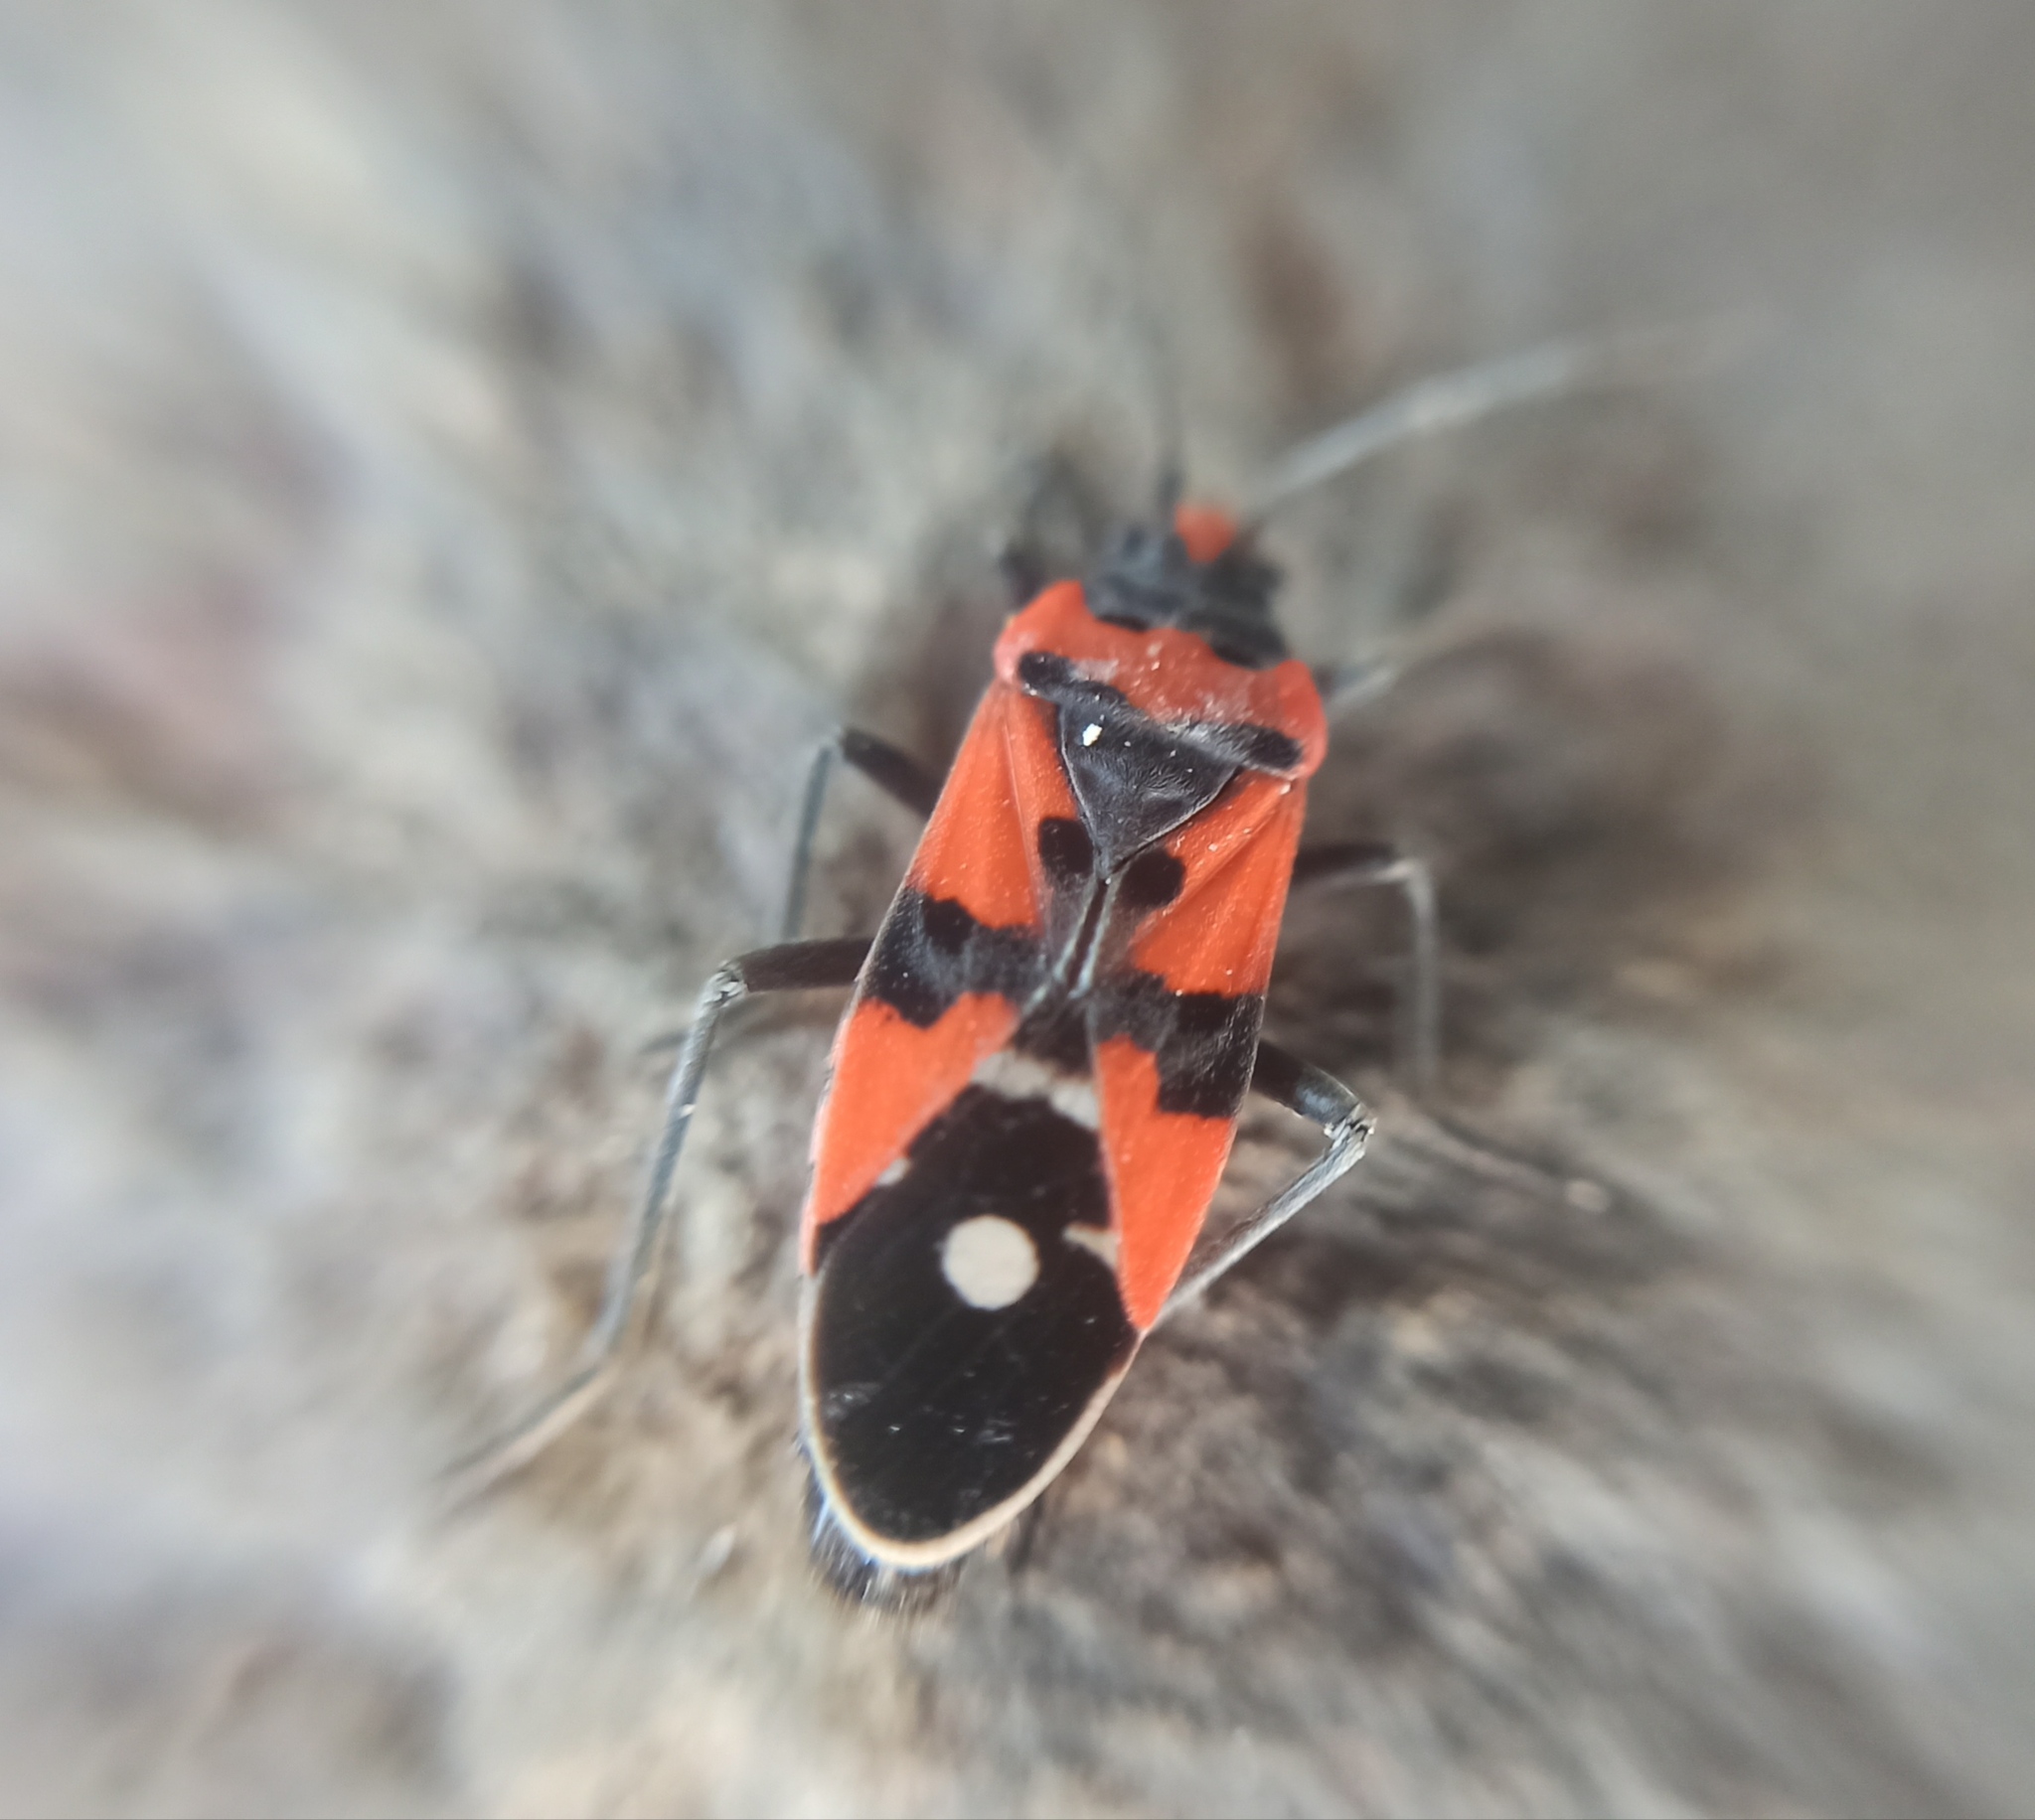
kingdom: Animalia
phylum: Arthropoda
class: Insecta
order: Hemiptera
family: Lygaeidae
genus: Lygaeus
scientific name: Lygaeus equestris
